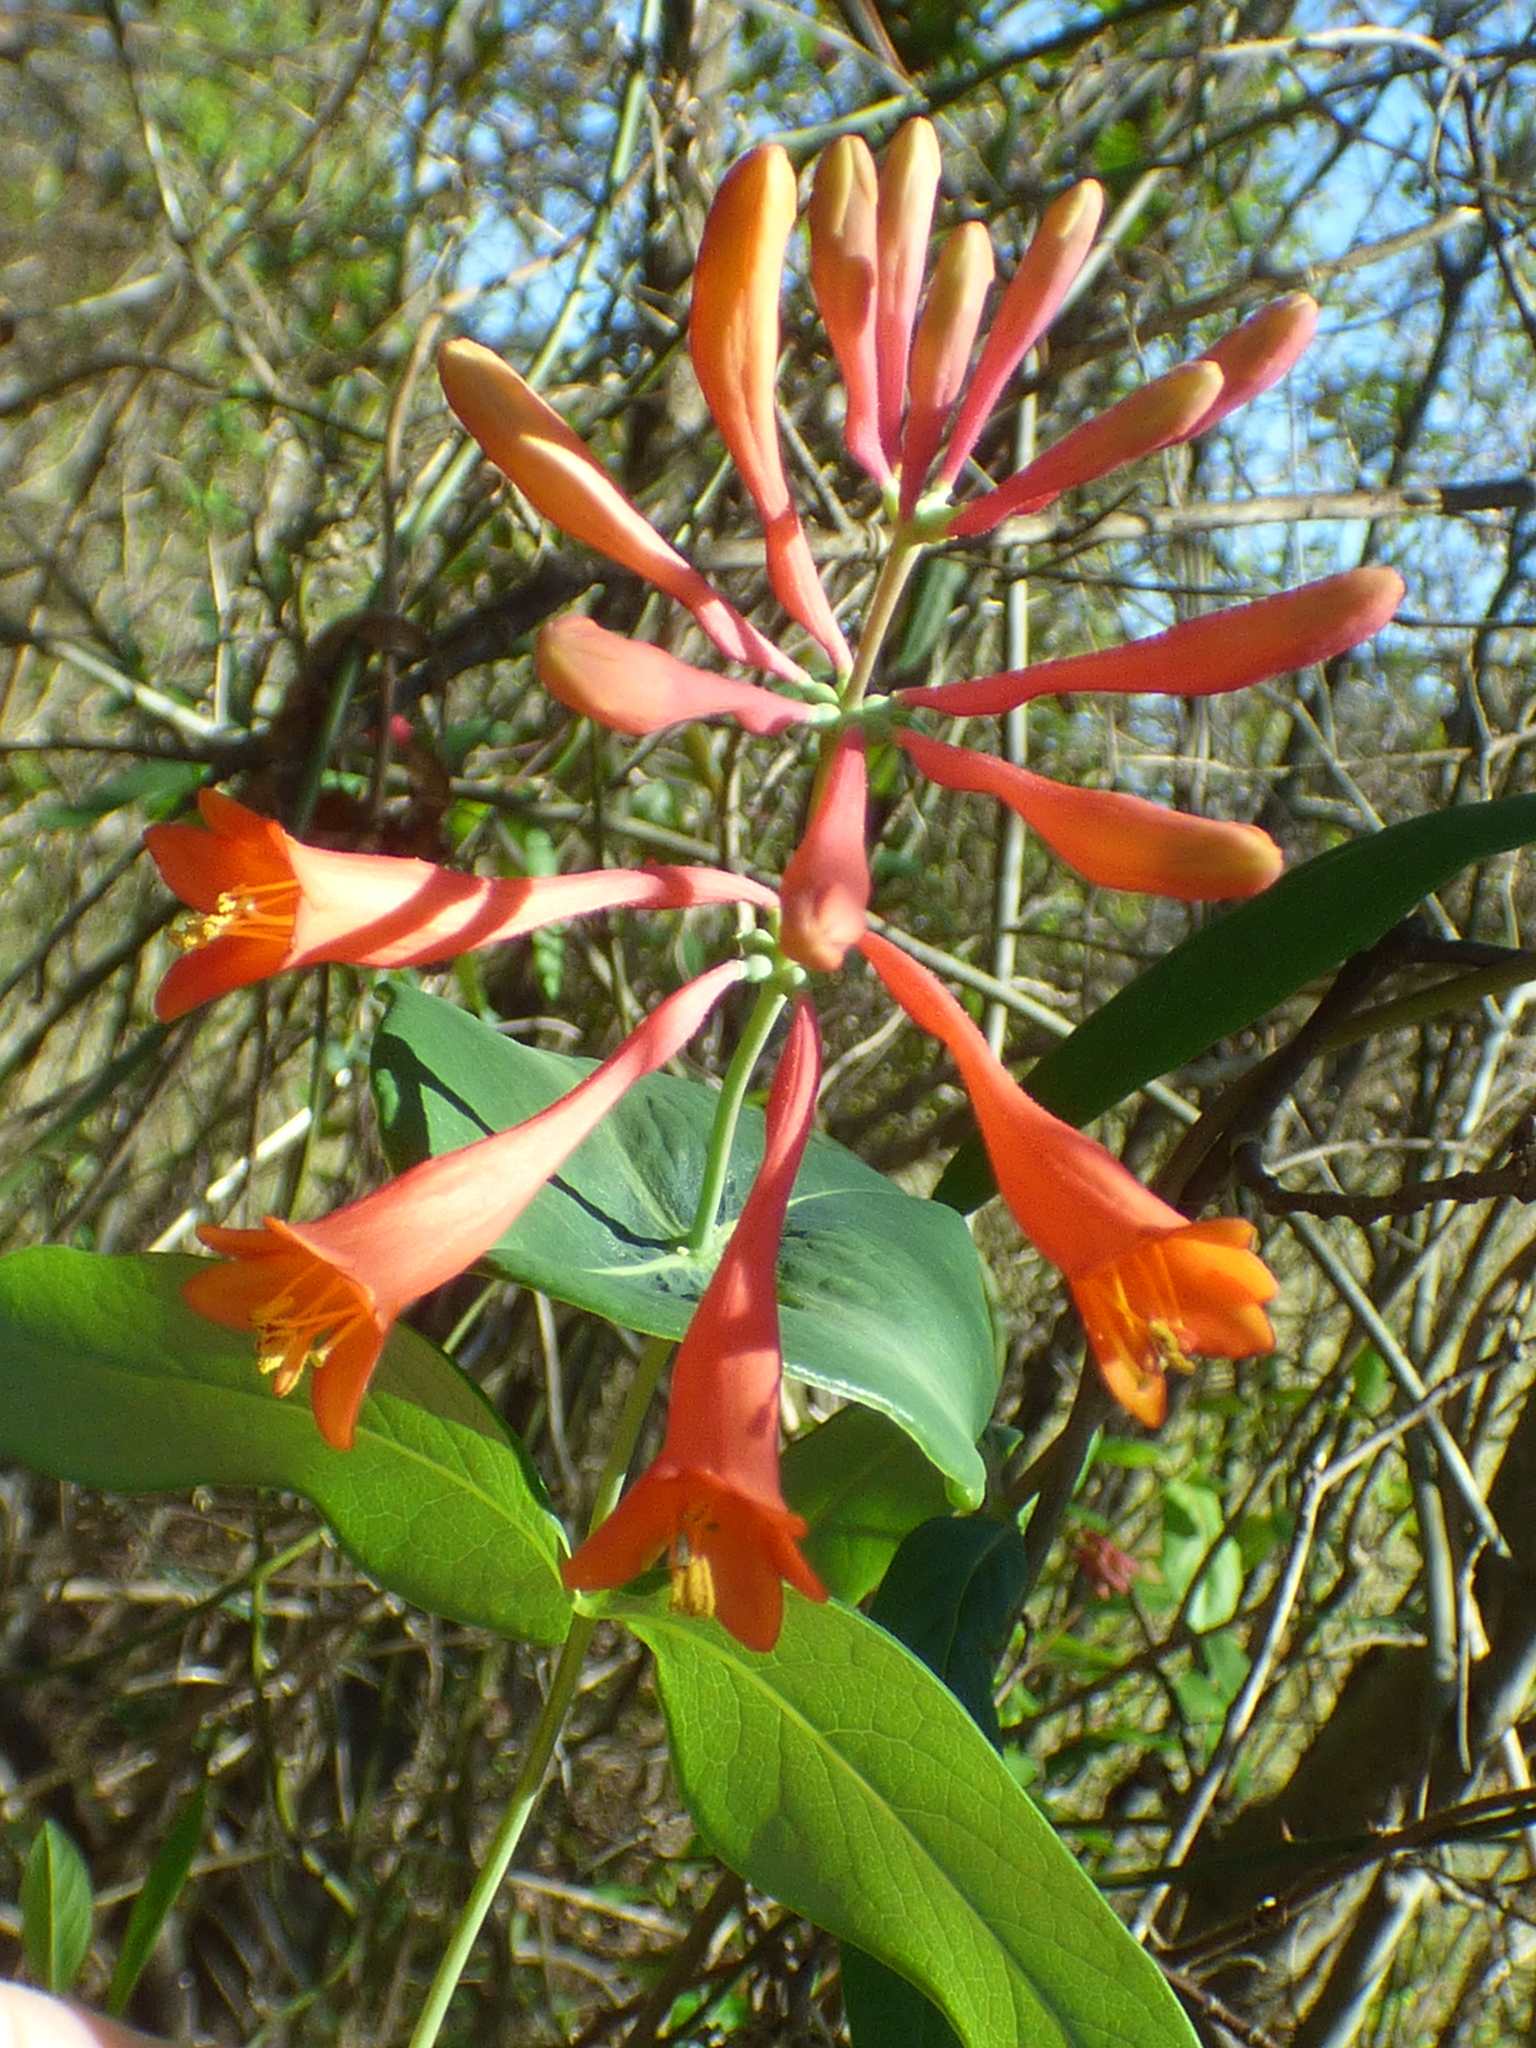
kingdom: Plantae
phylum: Tracheophyta
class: Magnoliopsida
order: Dipsacales
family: Caprifoliaceae
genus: Lonicera
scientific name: Lonicera sempervirens
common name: Coral honeysuckle
